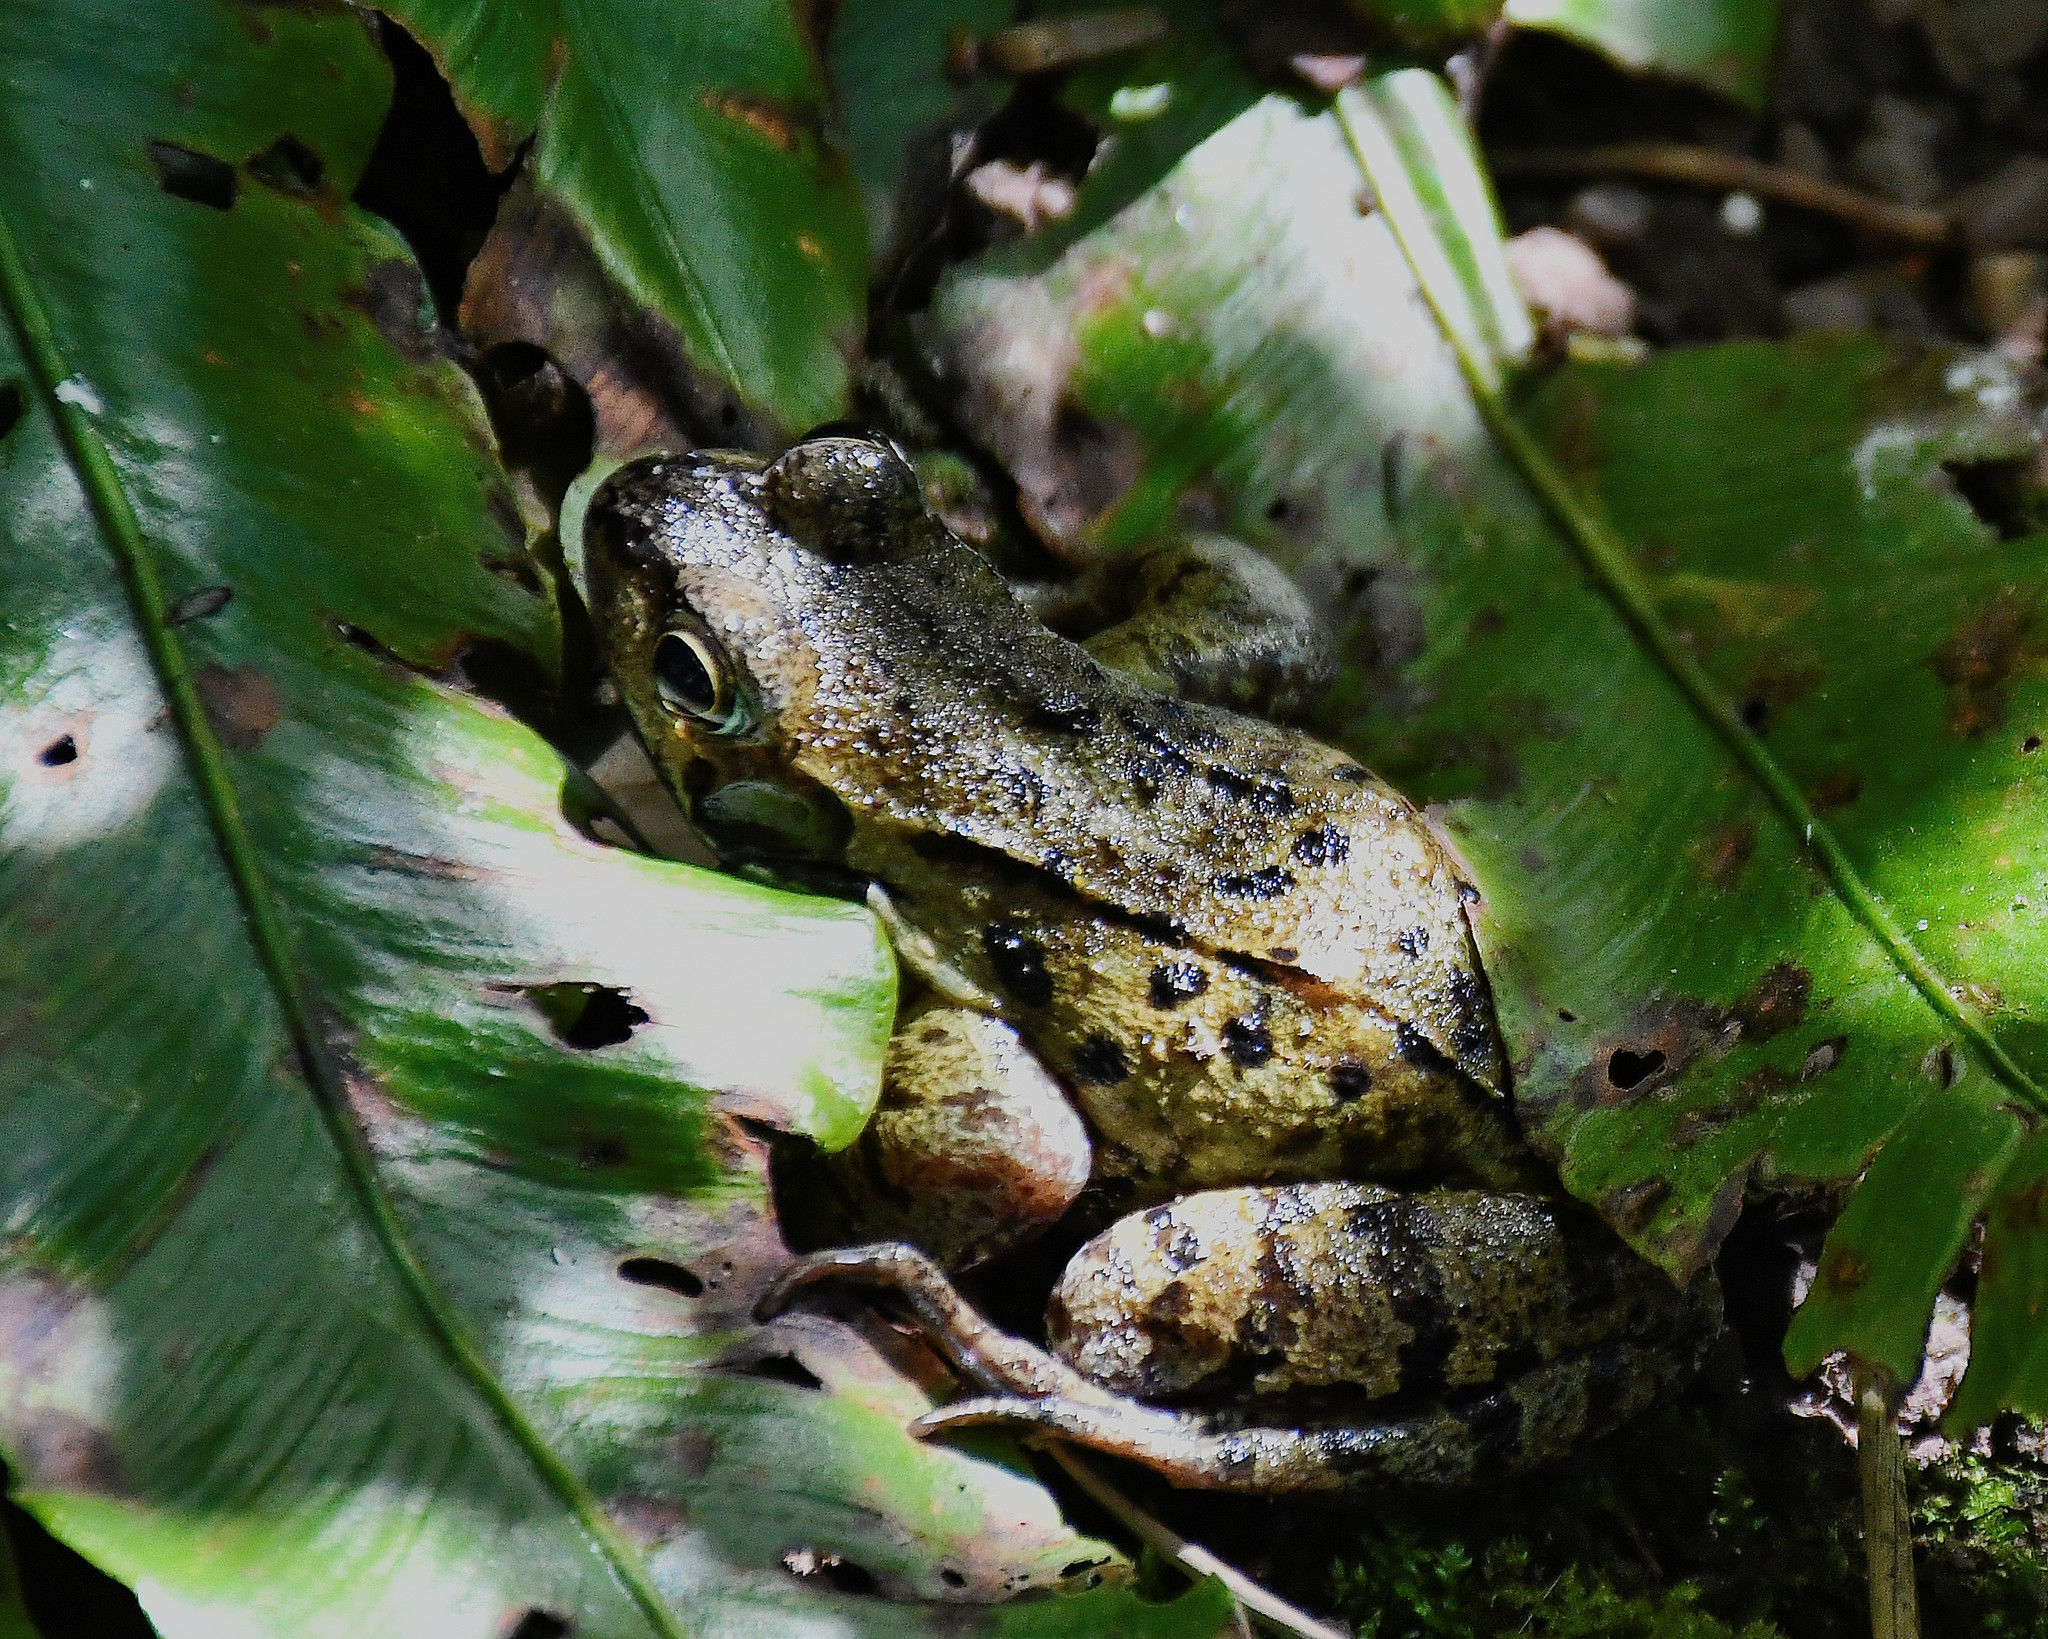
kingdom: Animalia
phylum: Chordata
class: Amphibia
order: Anura
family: Ranidae
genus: Rana
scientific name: Rana temporaria
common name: Common frog
